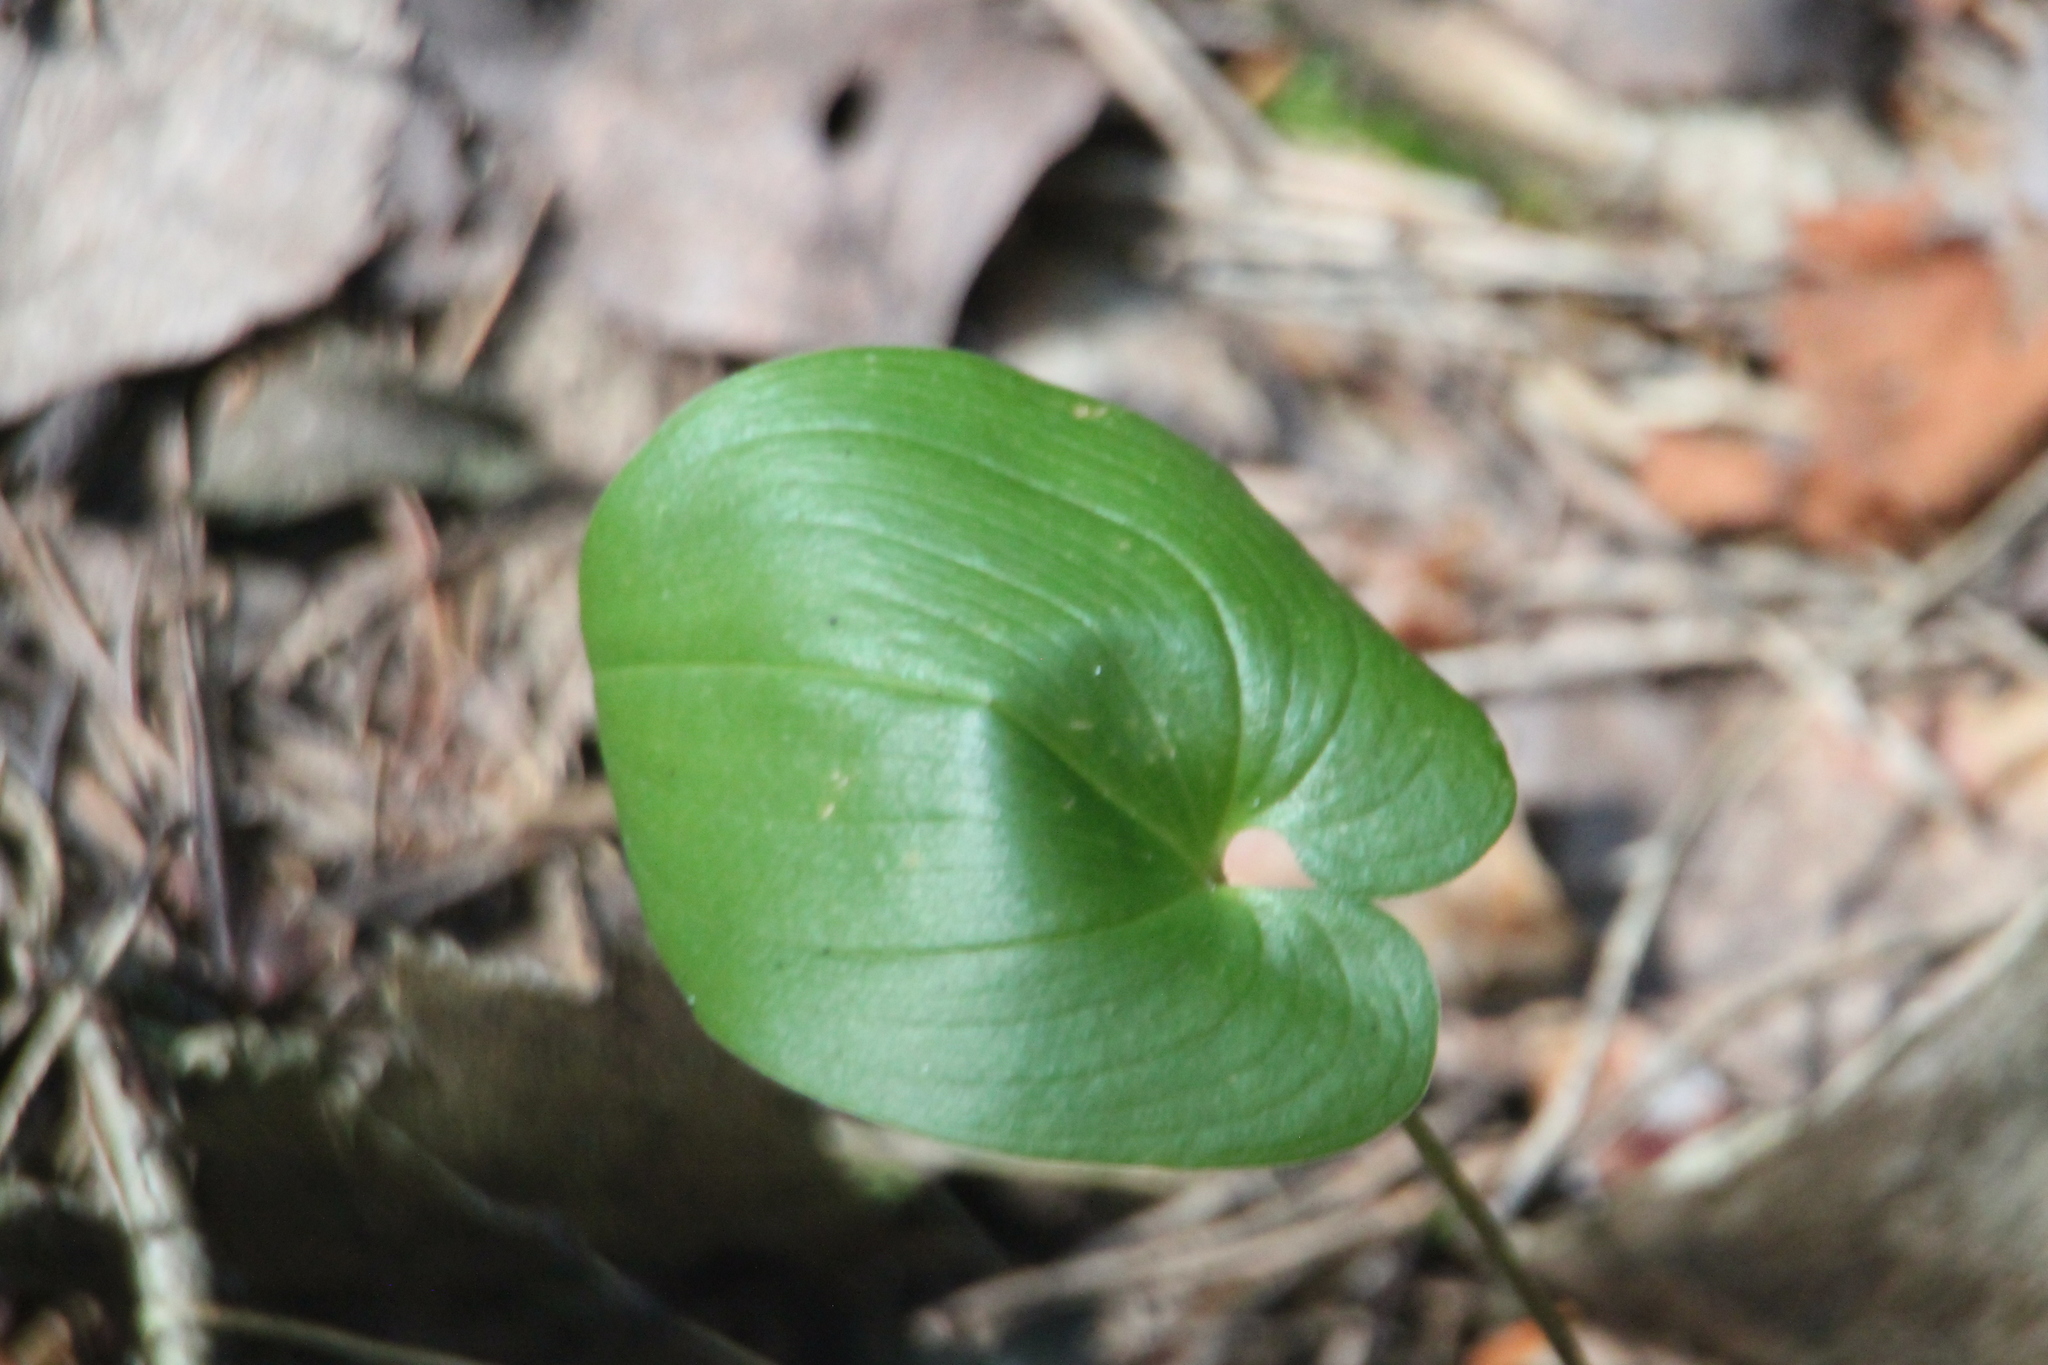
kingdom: Plantae
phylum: Tracheophyta
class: Liliopsida
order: Asparagales
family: Asparagaceae
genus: Maianthemum
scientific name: Maianthemum bifolium
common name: May lily
